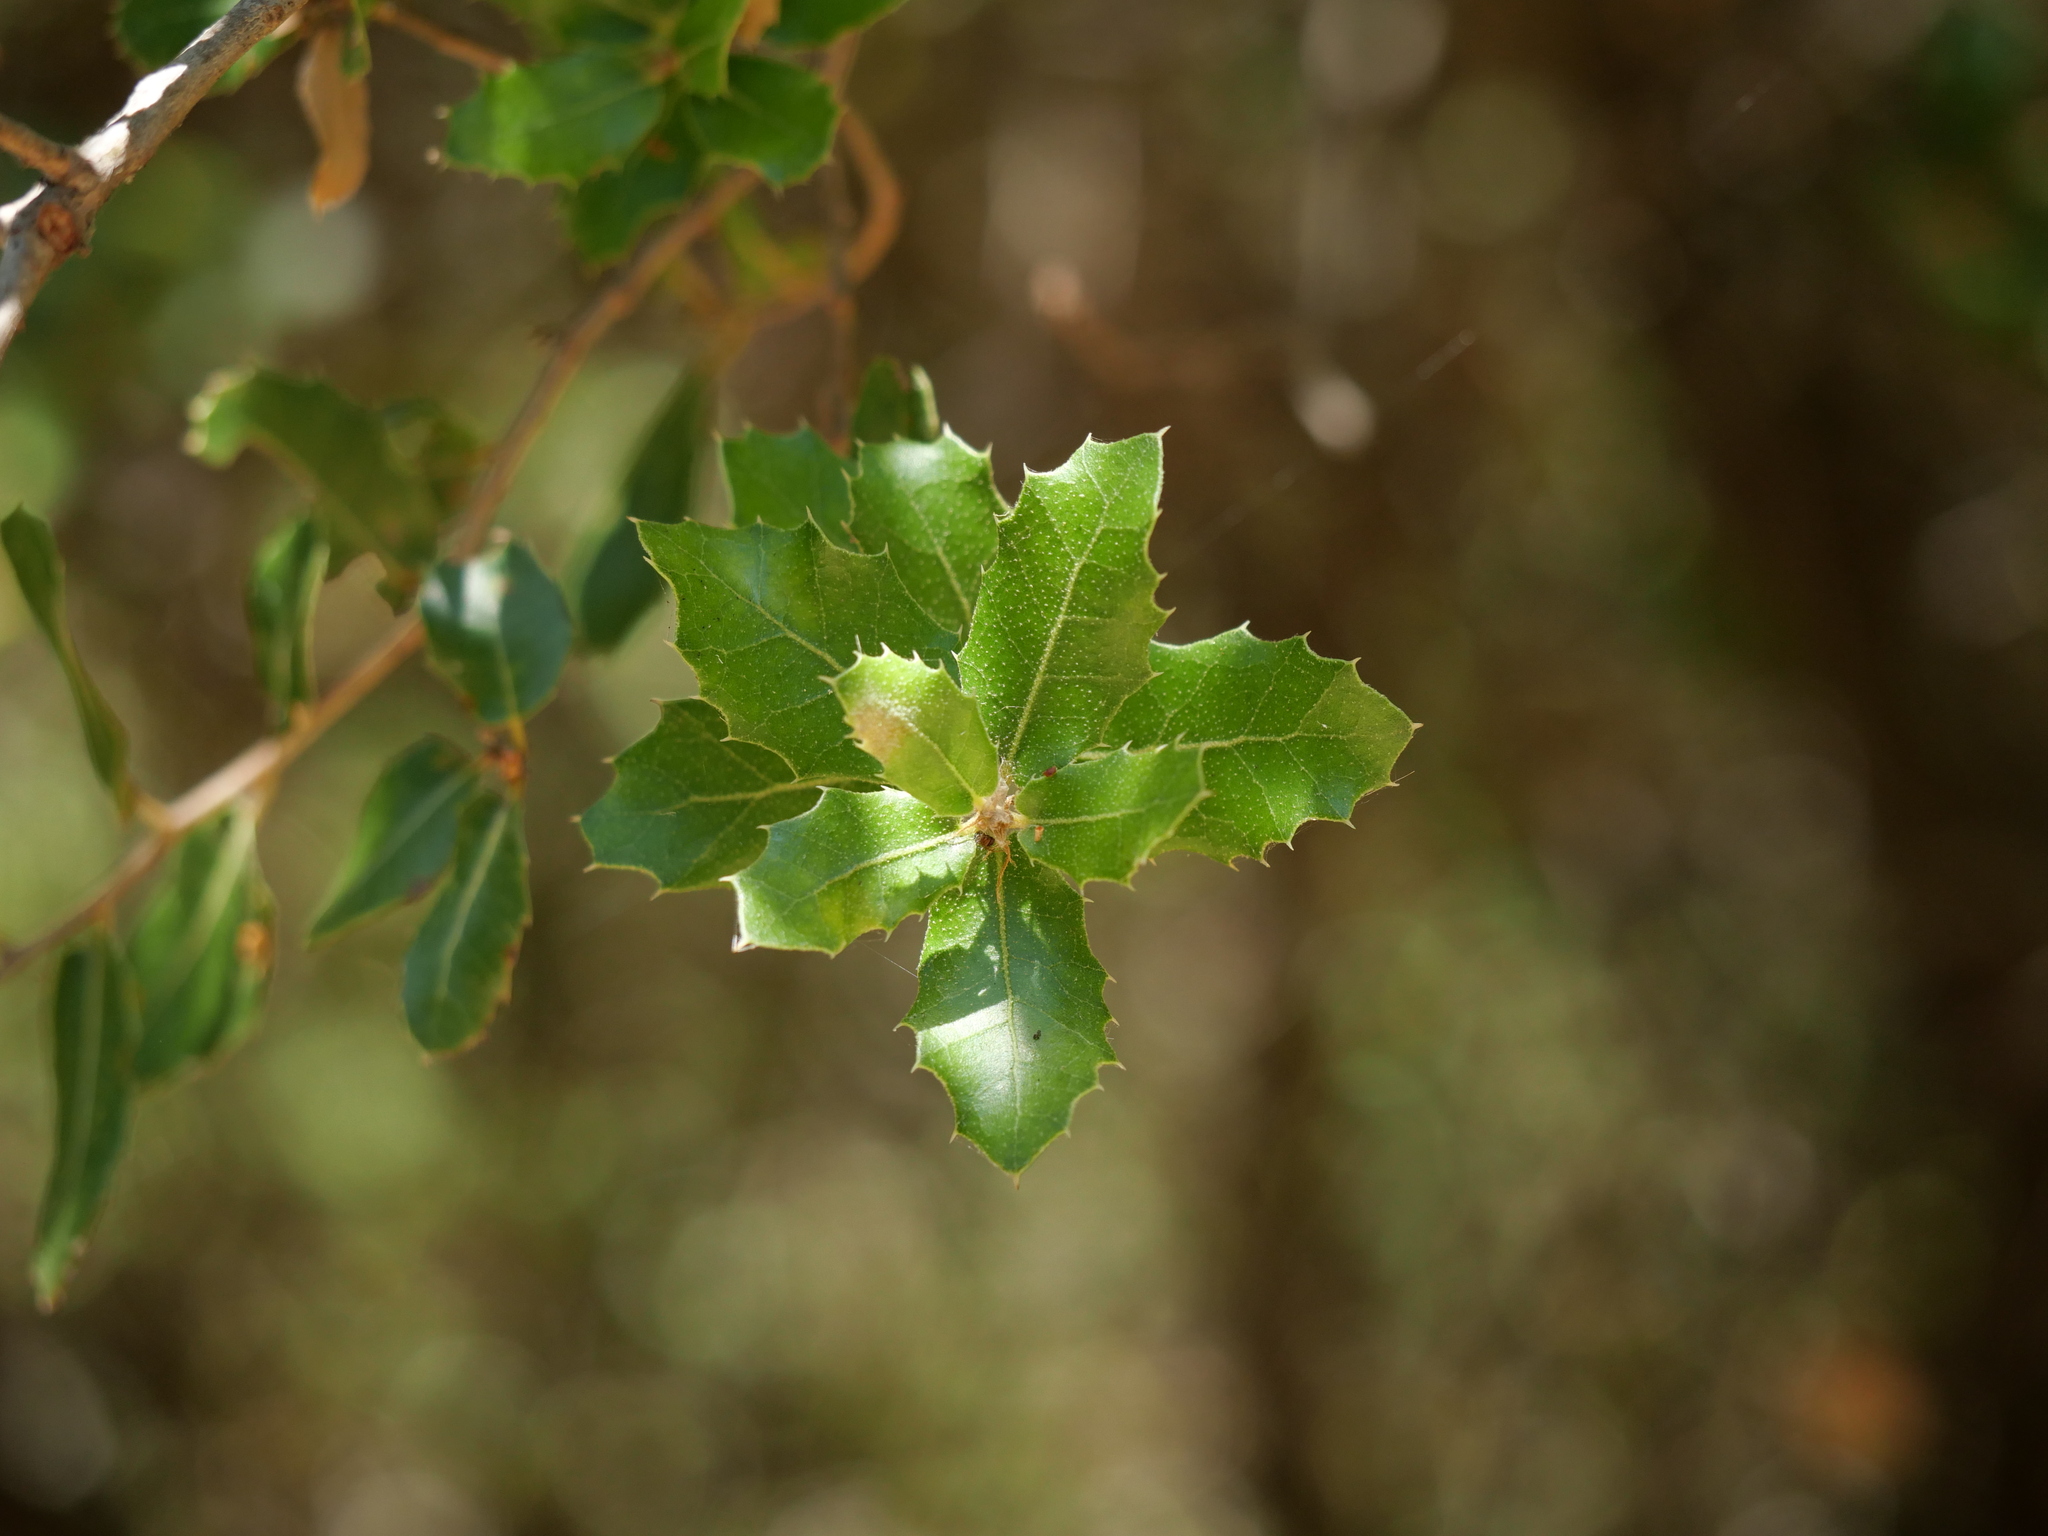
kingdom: Plantae
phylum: Tracheophyta
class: Magnoliopsida
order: Fagales
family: Fagaceae
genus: Quercus
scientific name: Quercus coccifera
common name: Kermes oak
